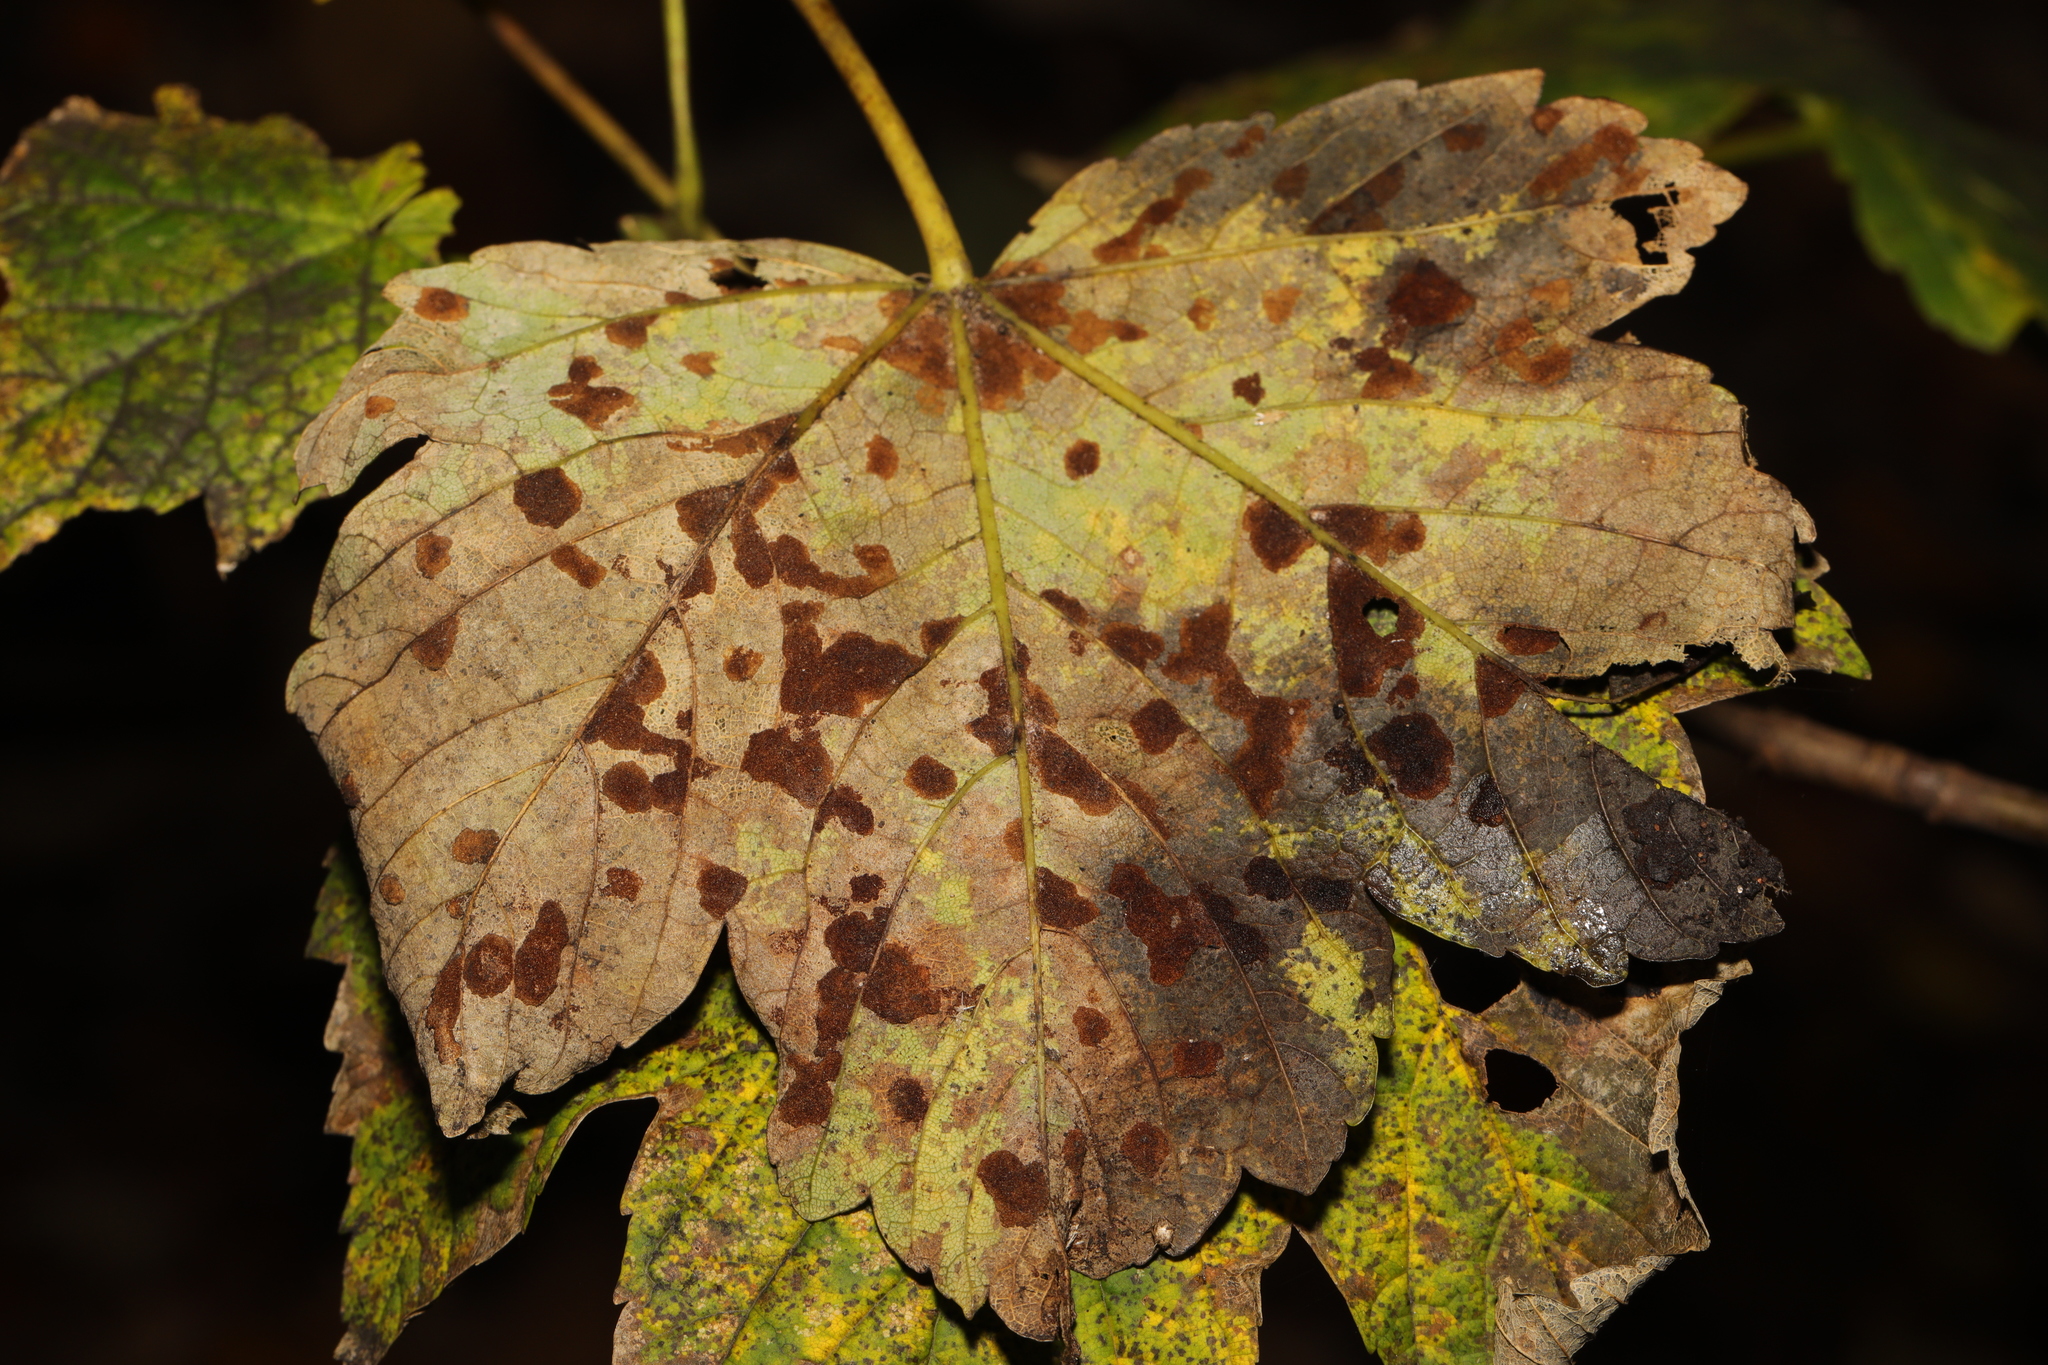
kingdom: Animalia
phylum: Arthropoda
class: Arachnida
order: Trombidiformes
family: Eriophyidae
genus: Aceria
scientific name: Aceria pseudoplatani
